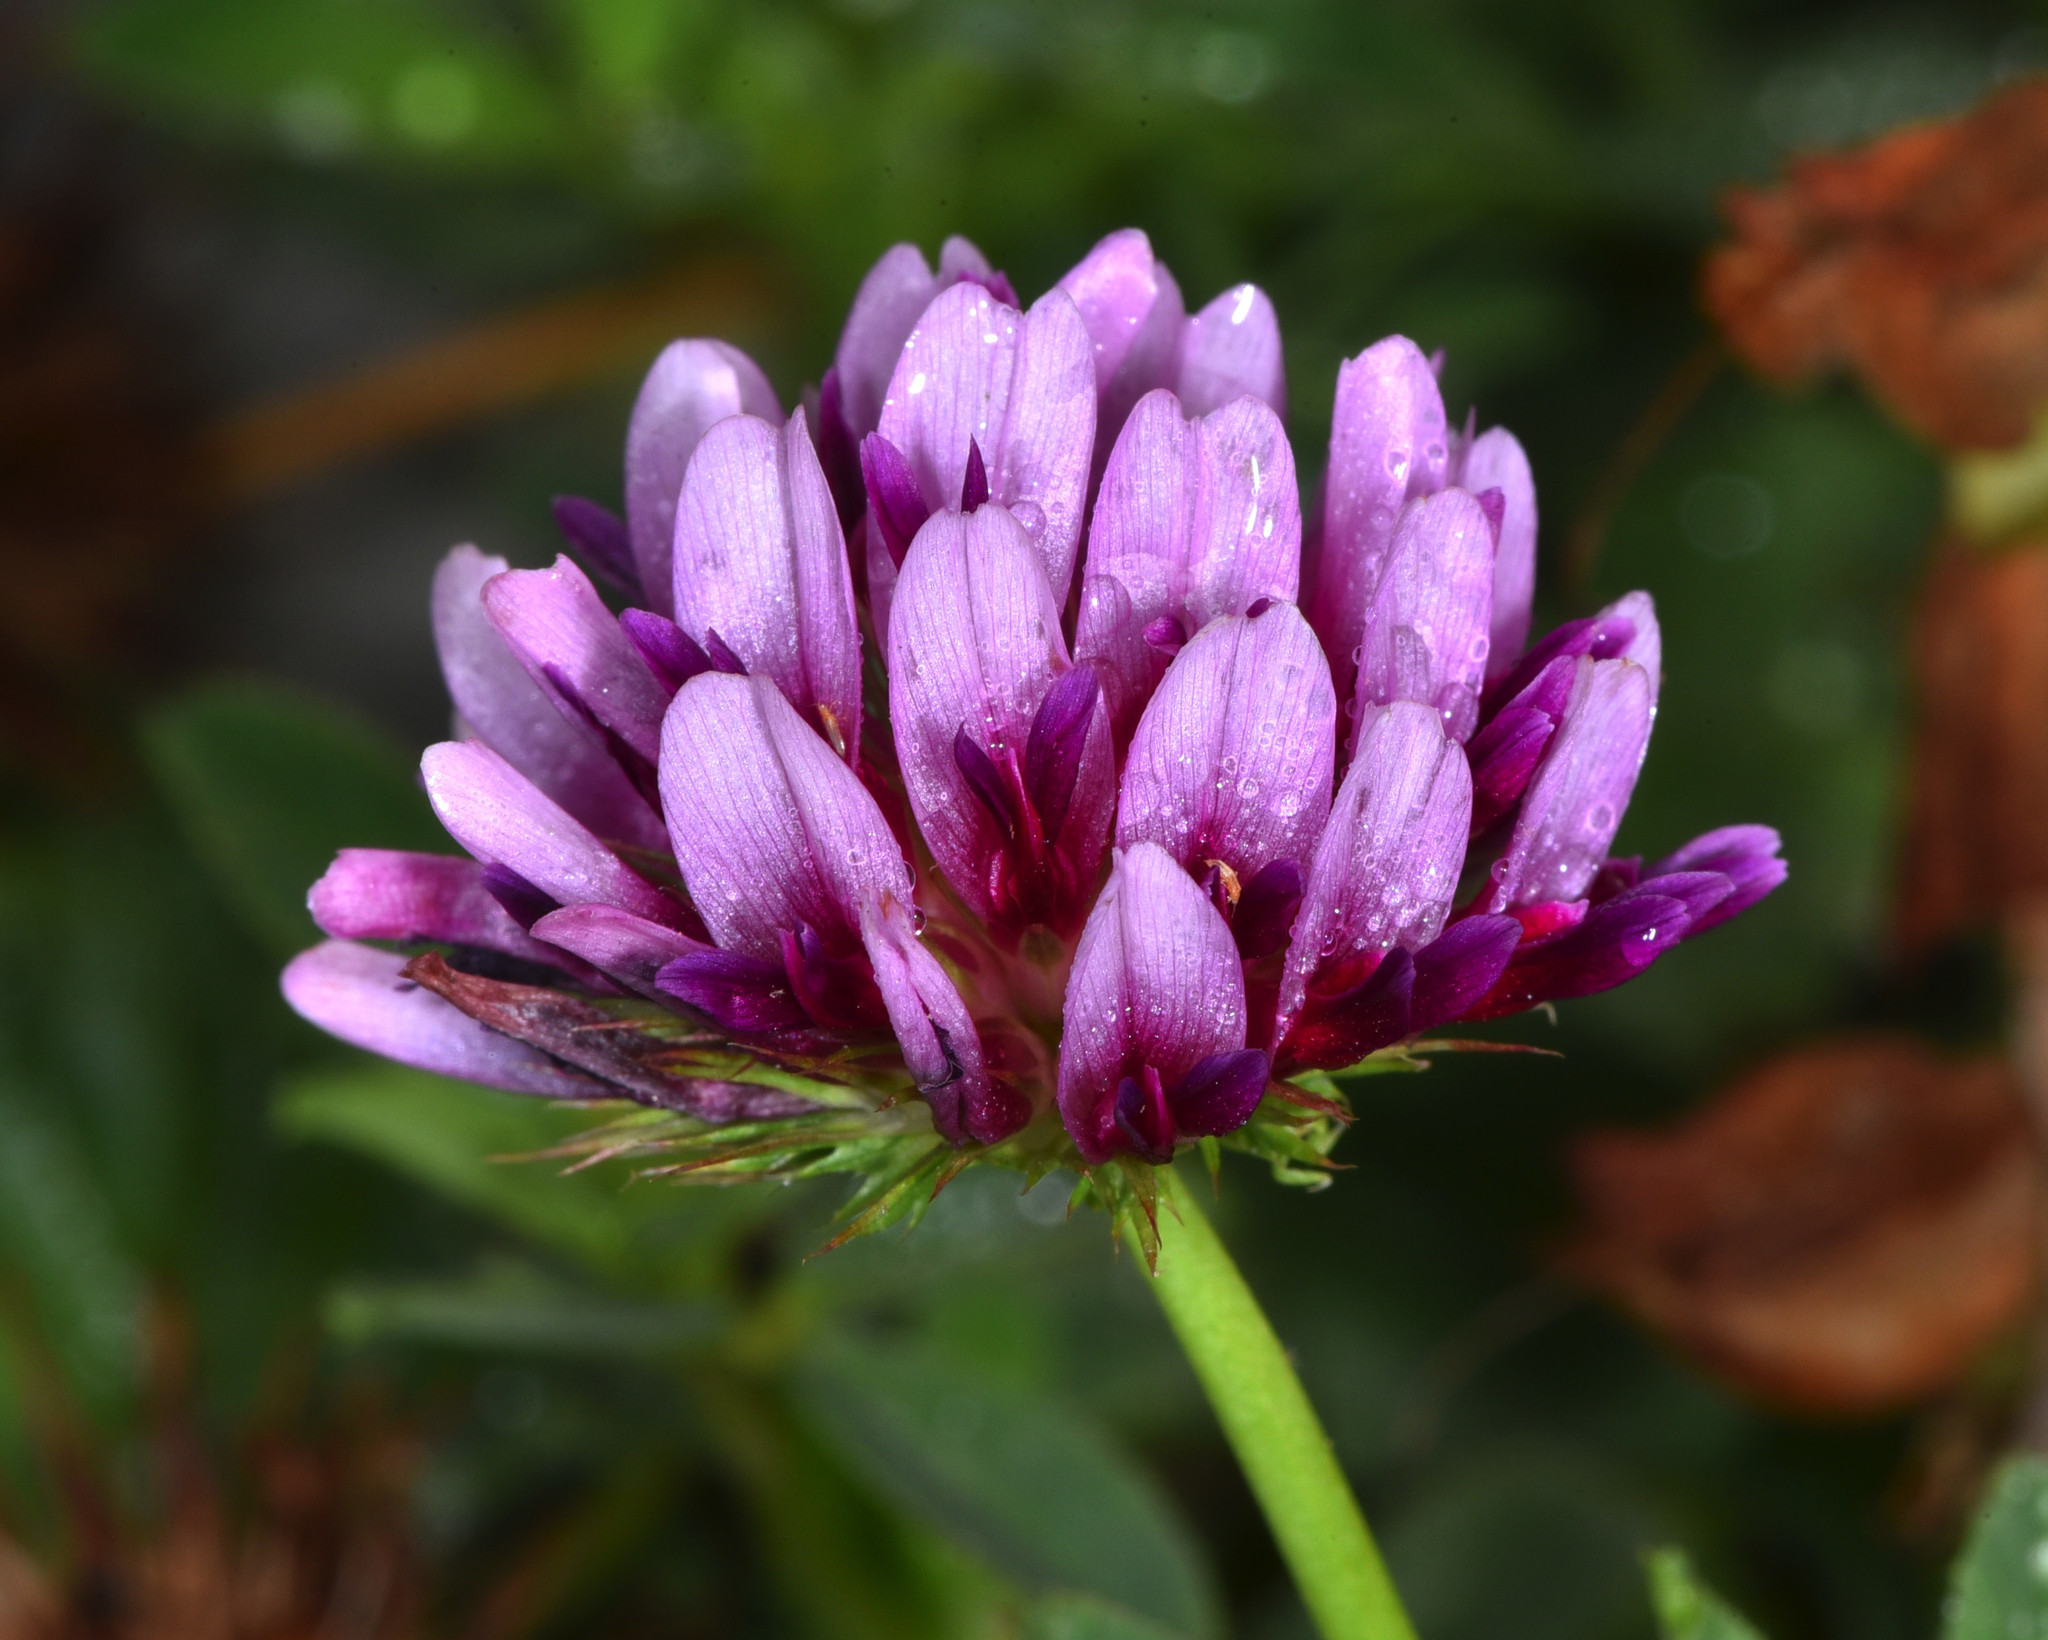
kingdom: Plantae
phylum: Tracheophyta
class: Magnoliopsida
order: Fabales
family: Fabaceae
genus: Trifolium
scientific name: Trifolium wormskioldii
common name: Springbank clover
